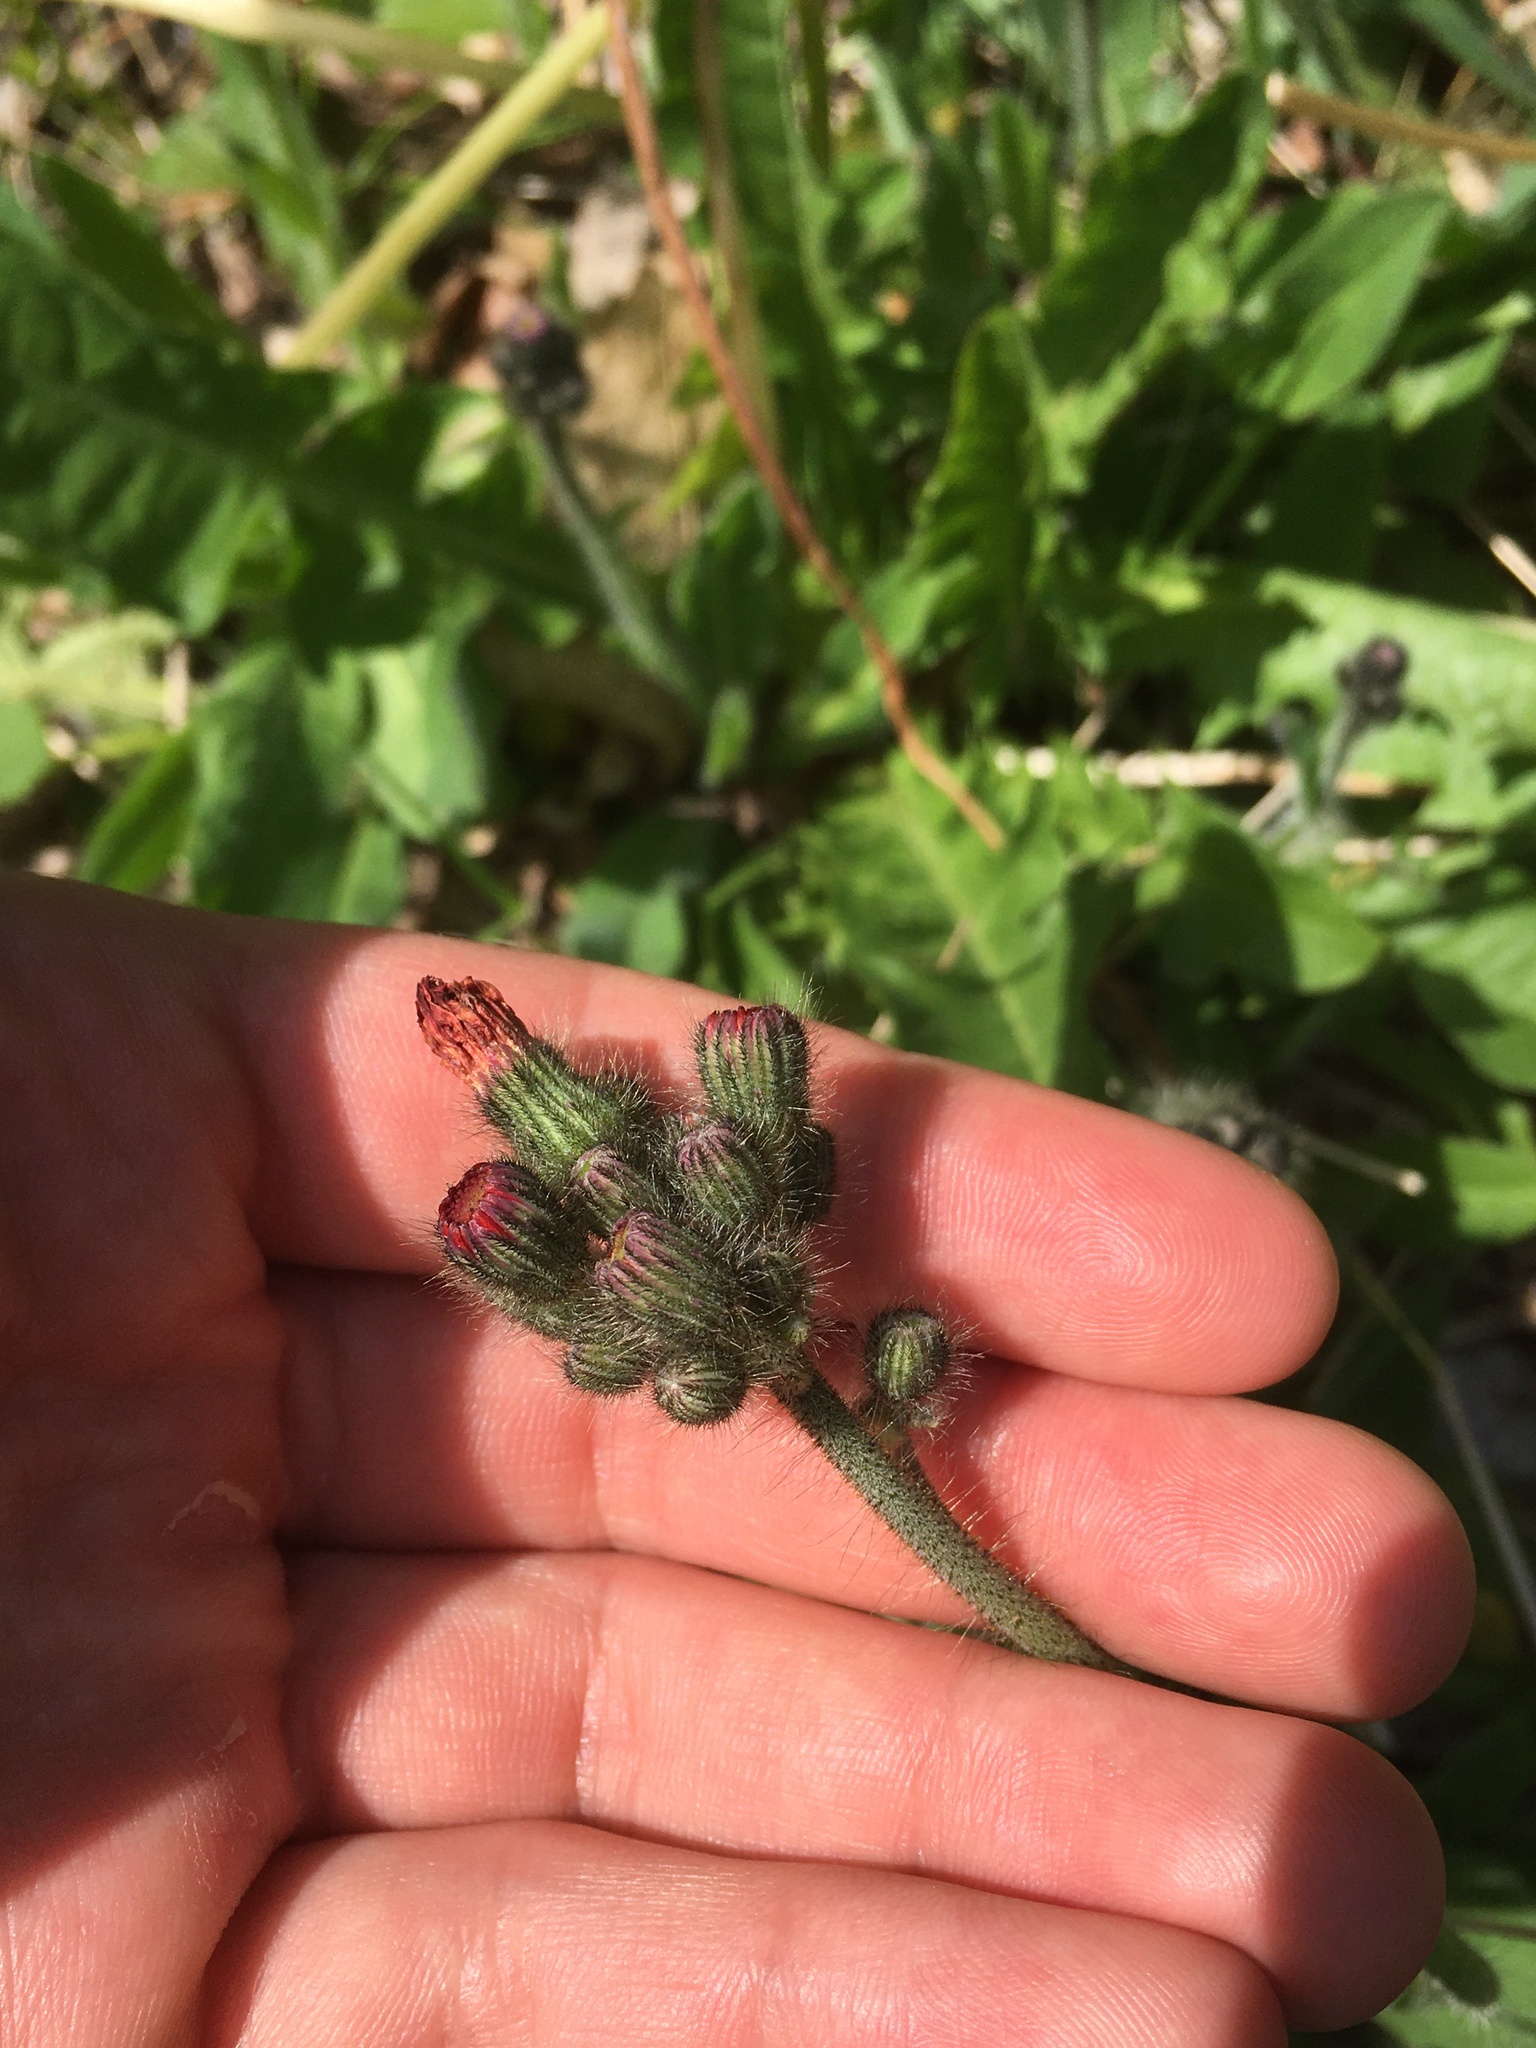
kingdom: Plantae
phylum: Tracheophyta
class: Magnoliopsida
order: Asterales
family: Asteraceae
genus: Pilosella
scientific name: Pilosella aurantiaca
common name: Fox-and-cubs
